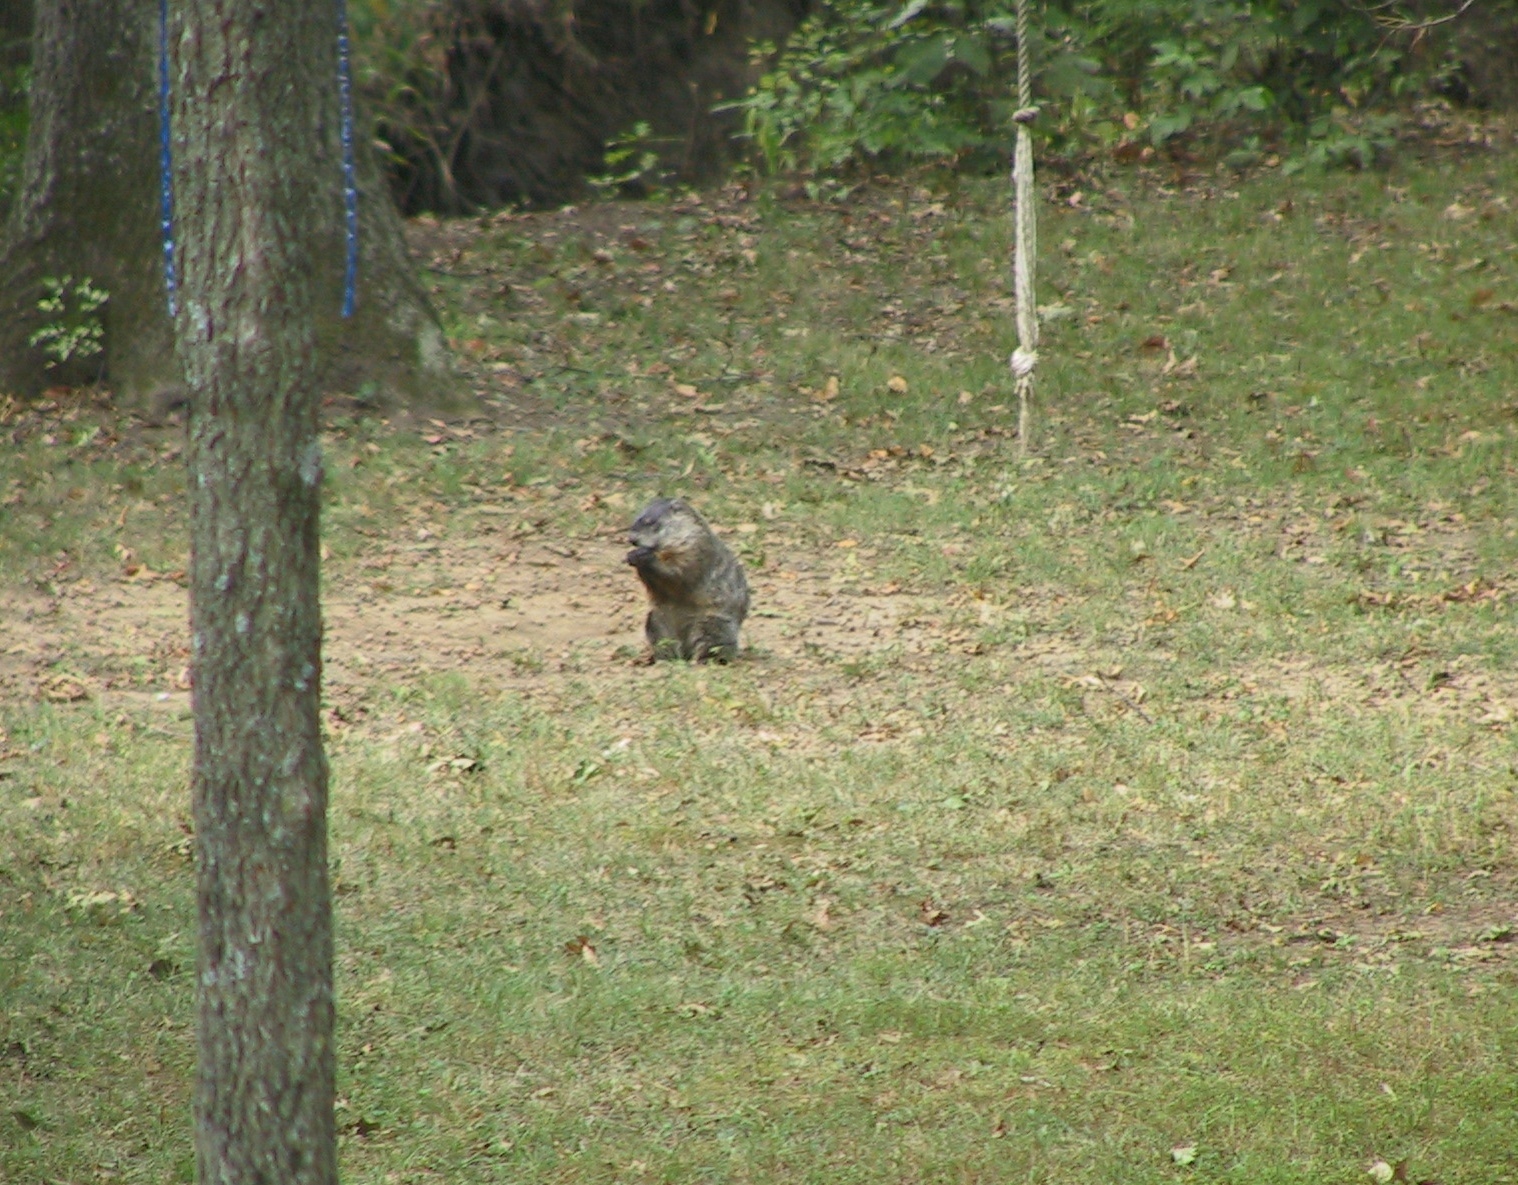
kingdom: Animalia
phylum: Chordata
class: Mammalia
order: Rodentia
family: Sciuridae
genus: Marmota
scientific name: Marmota monax
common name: Groundhog
